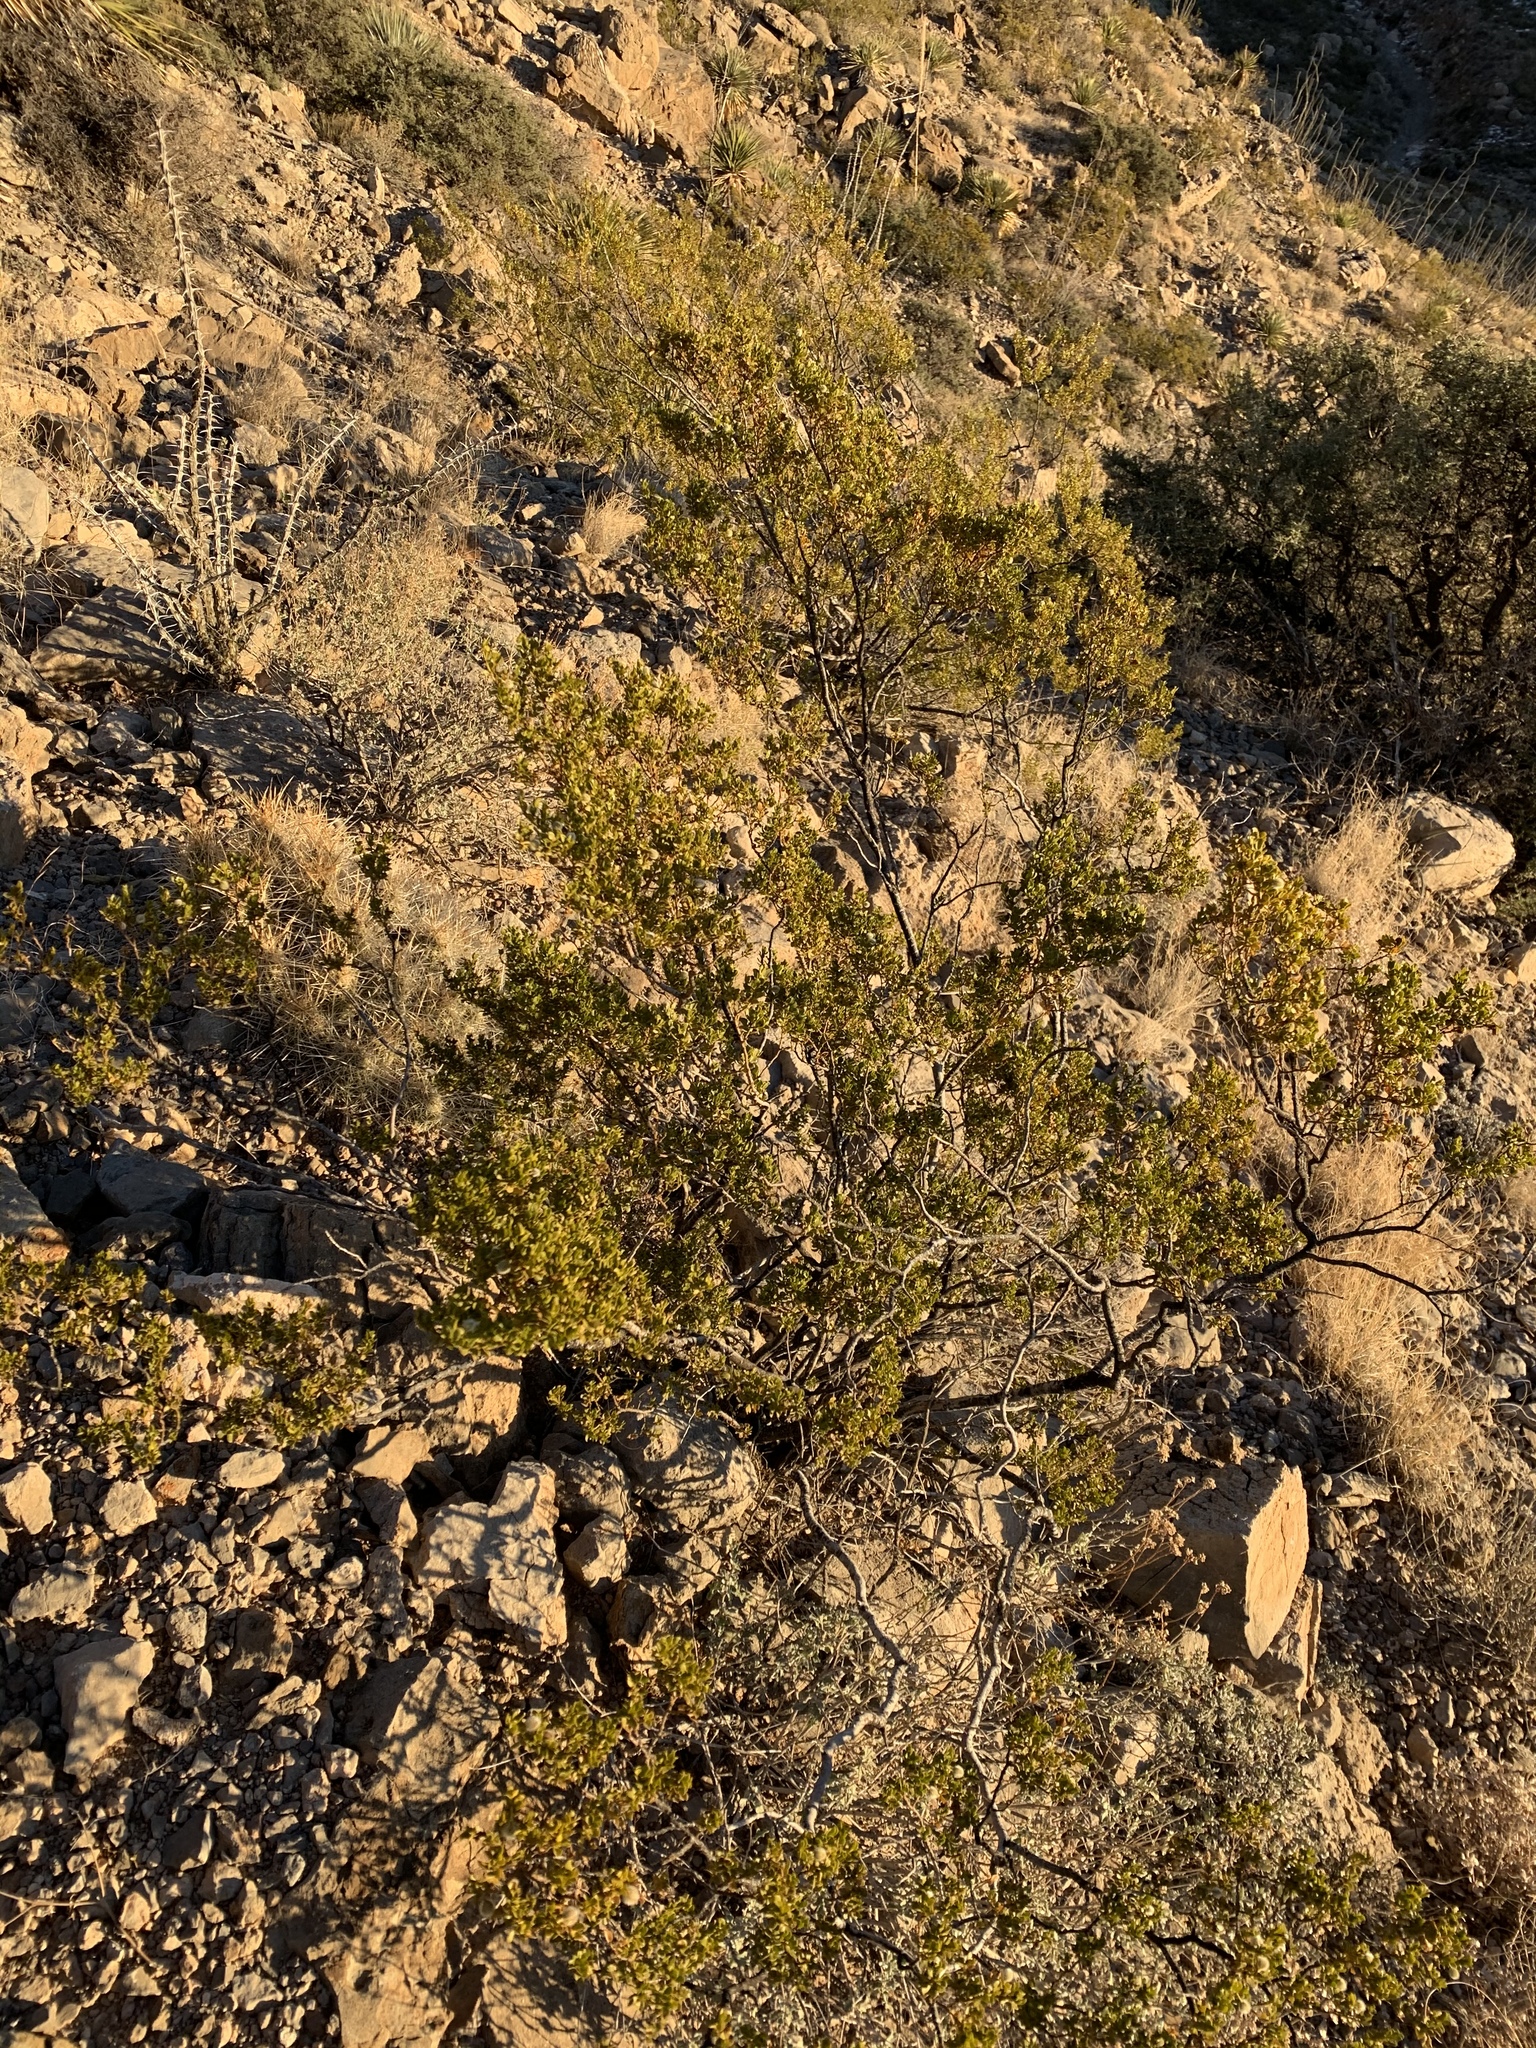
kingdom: Plantae
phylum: Tracheophyta
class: Magnoliopsida
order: Zygophyllales
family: Zygophyllaceae
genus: Larrea
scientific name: Larrea tridentata
